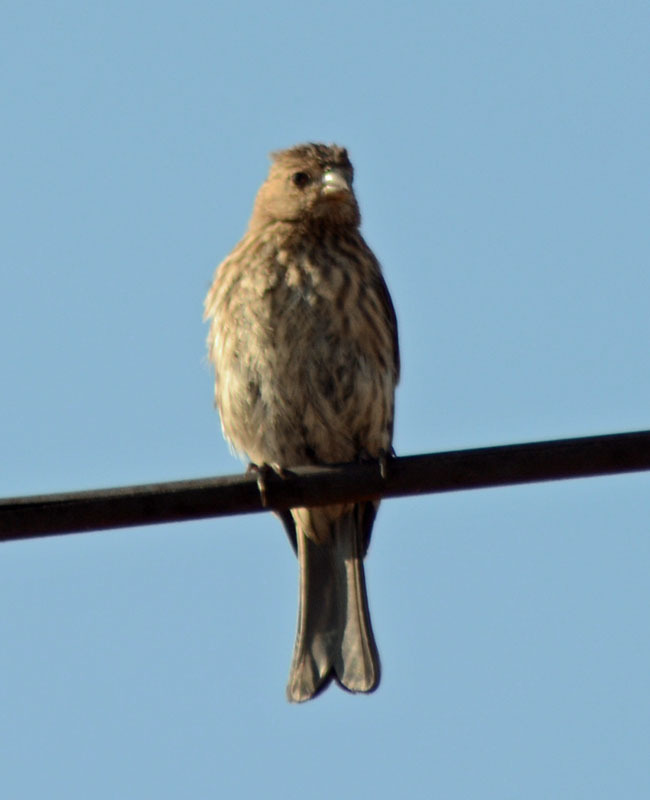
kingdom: Animalia
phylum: Chordata
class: Aves
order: Passeriformes
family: Fringillidae
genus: Haemorhous
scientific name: Haemorhous mexicanus
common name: House finch
